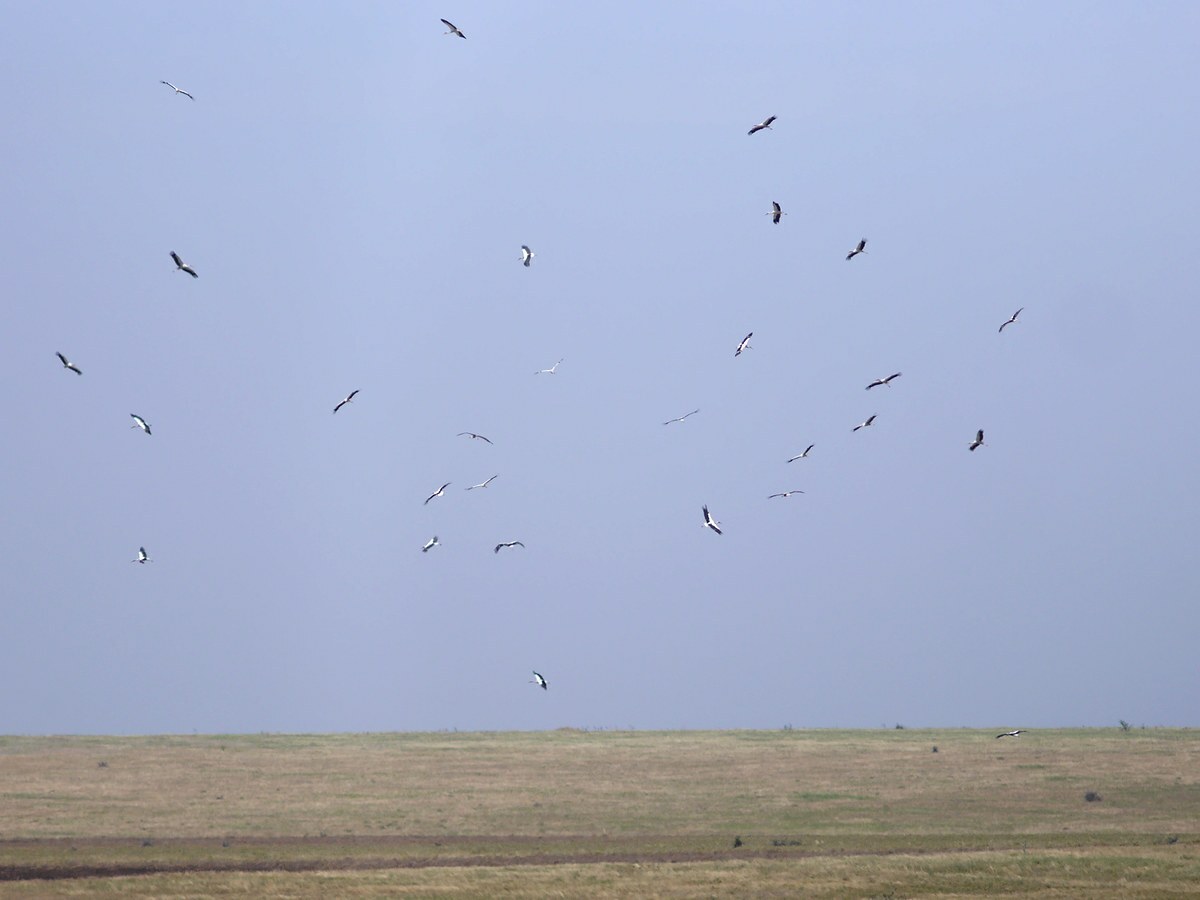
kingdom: Animalia
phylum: Chordata
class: Aves
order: Ciconiiformes
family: Ciconiidae
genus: Ciconia
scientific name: Ciconia ciconia
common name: White stork
